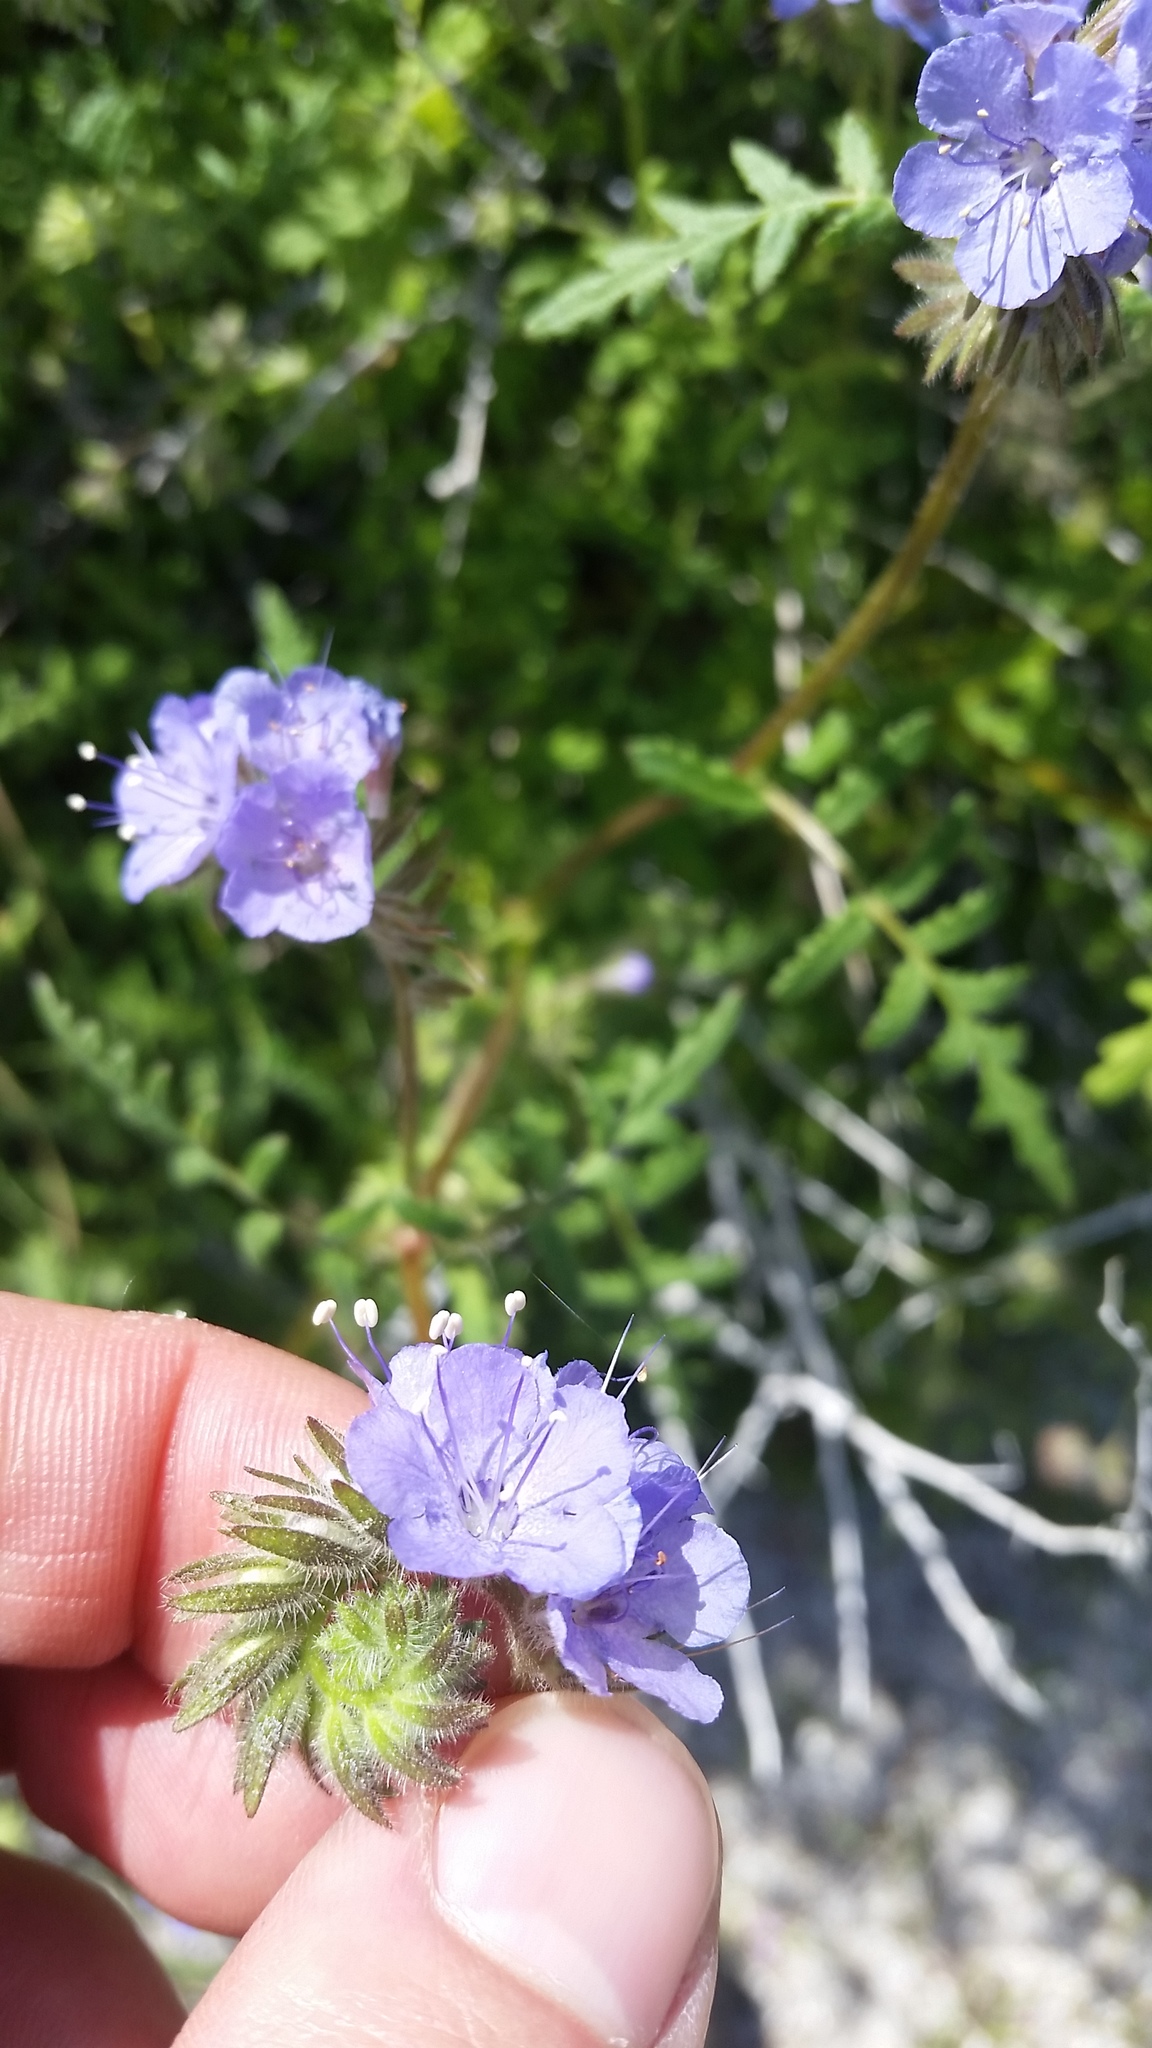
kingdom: Plantae
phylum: Tracheophyta
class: Magnoliopsida
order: Boraginales
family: Hydrophyllaceae
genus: Phacelia
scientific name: Phacelia distans
